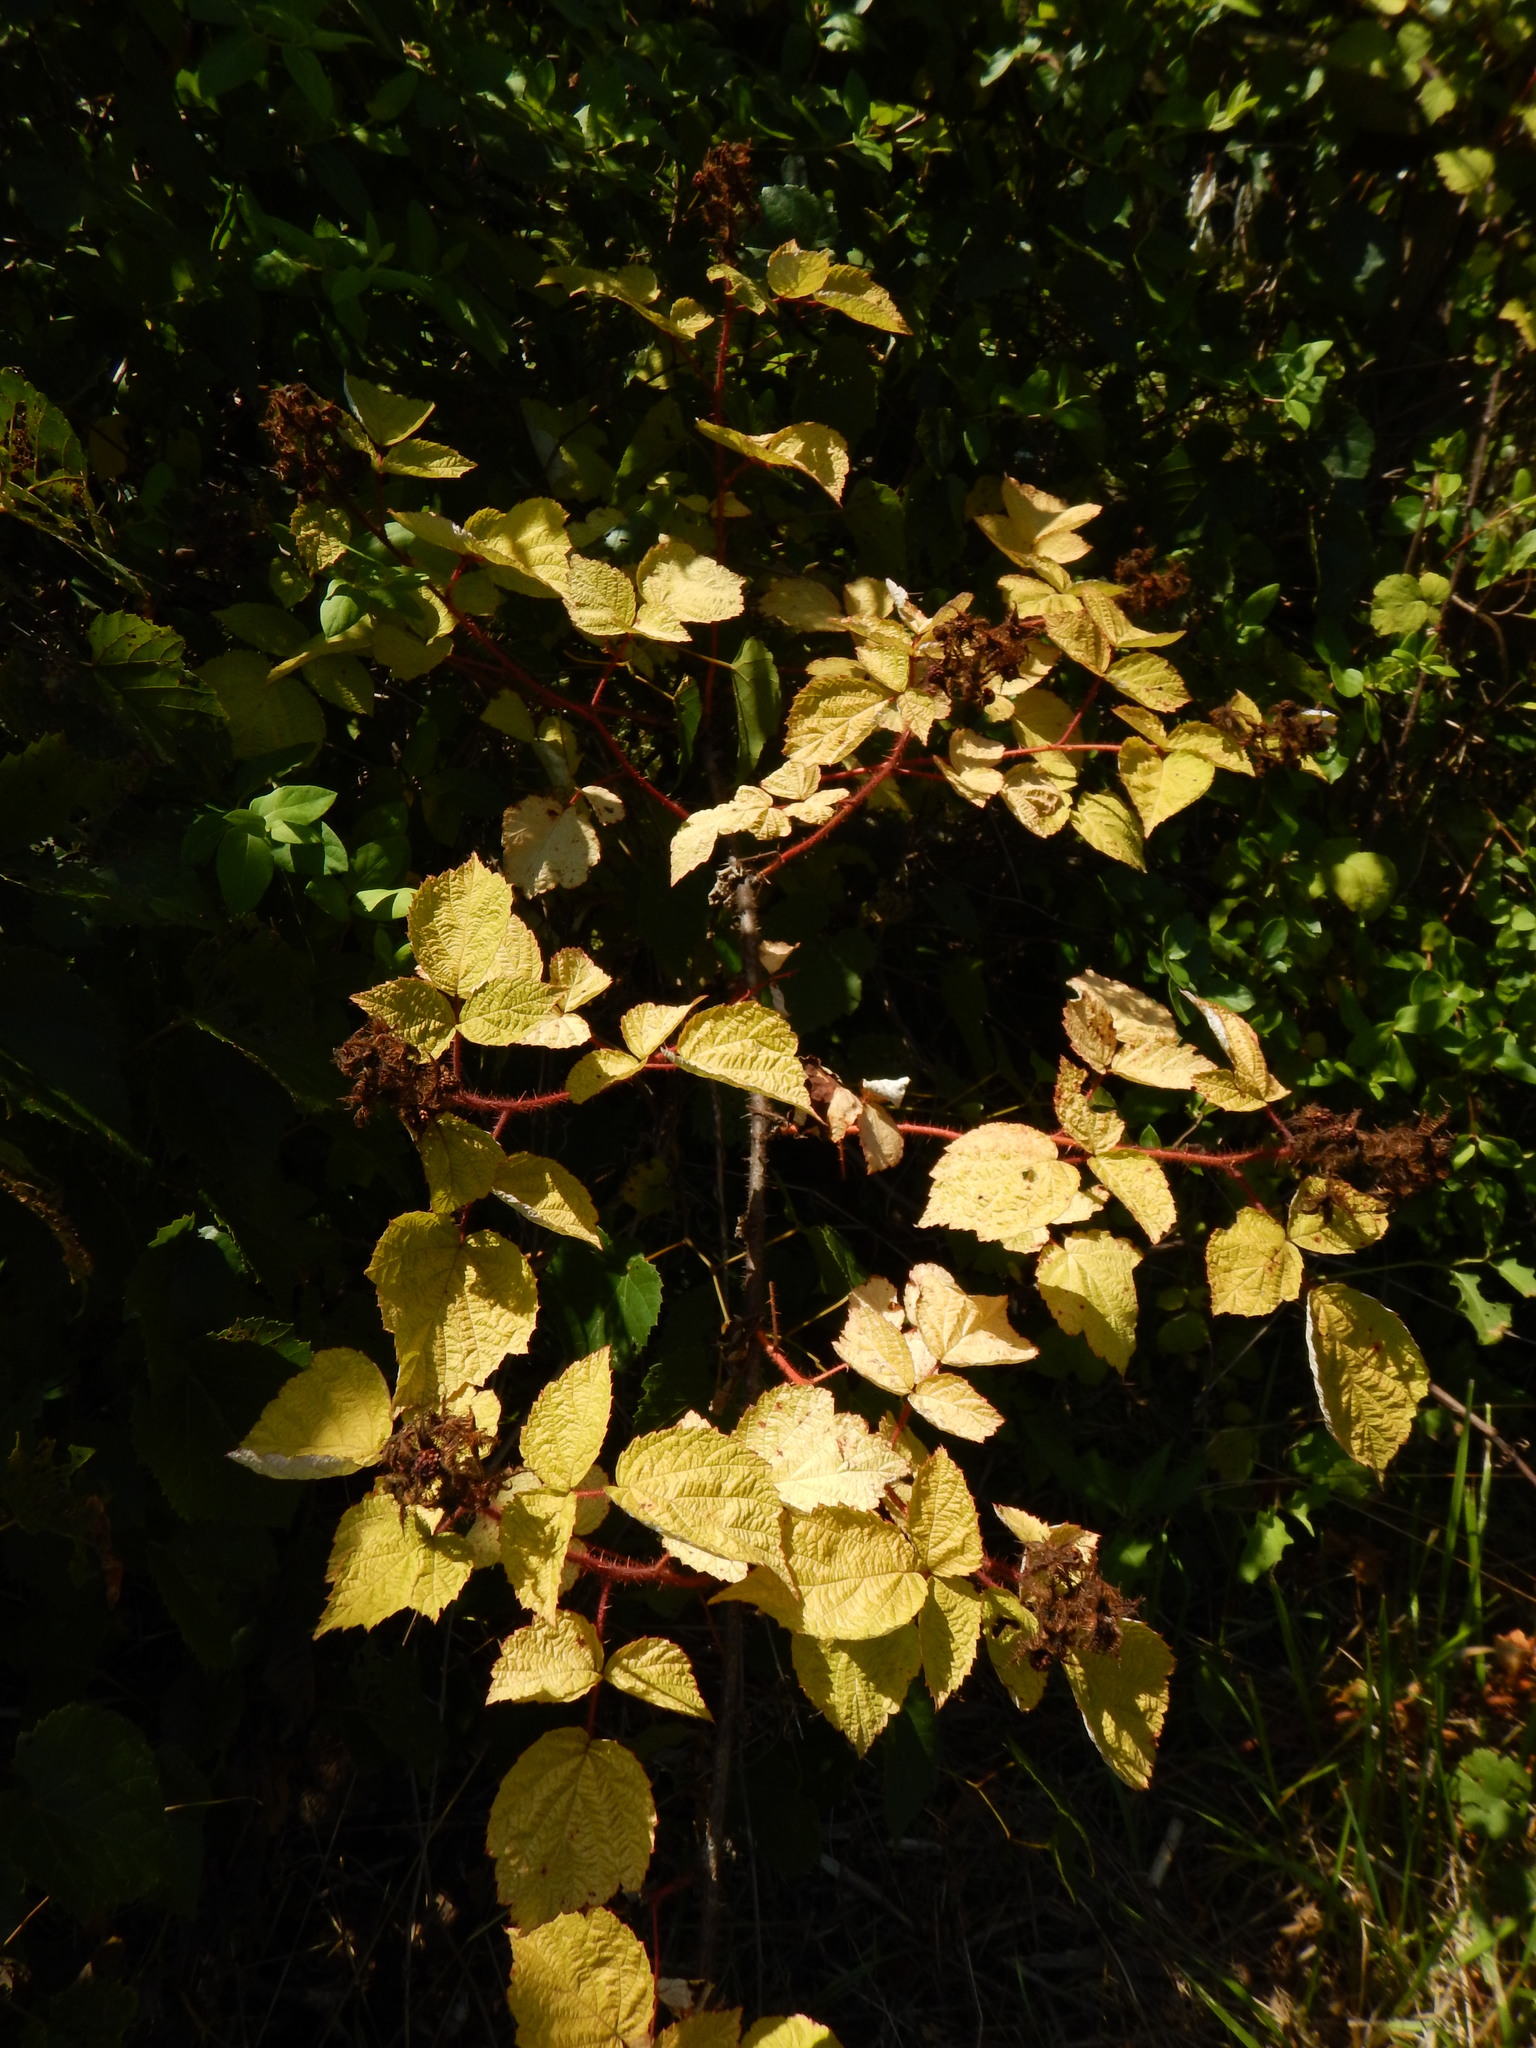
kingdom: Plantae
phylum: Tracheophyta
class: Magnoliopsida
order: Rosales
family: Rosaceae
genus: Rubus
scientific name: Rubus phoenicolasius
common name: Japanese wineberry
